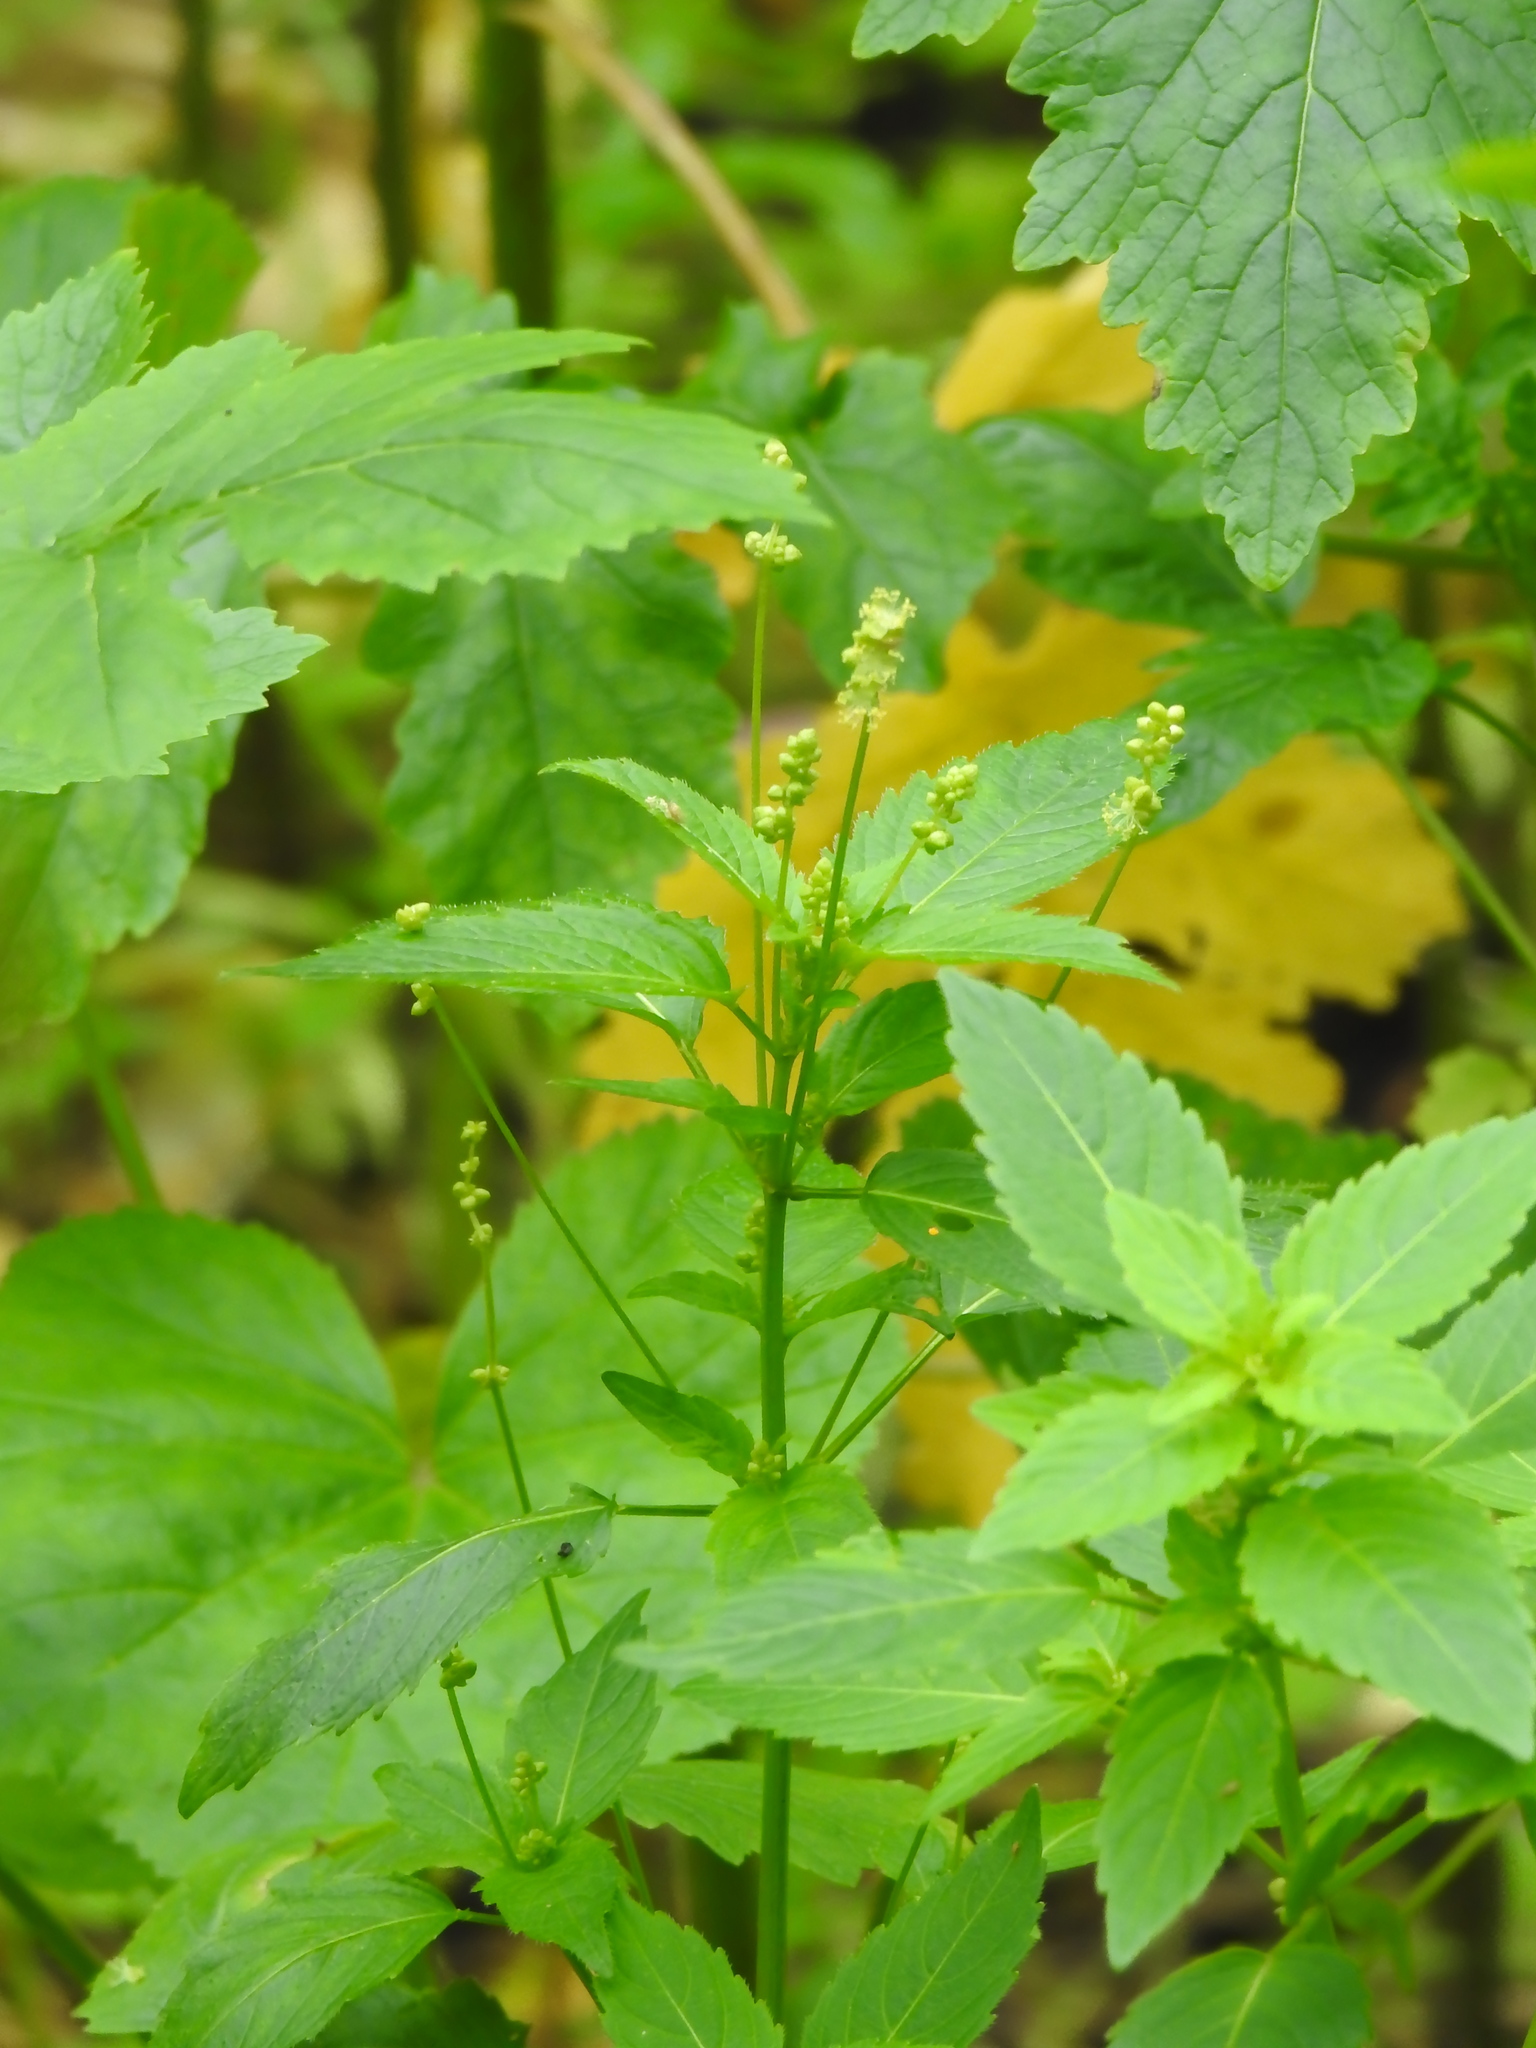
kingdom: Plantae
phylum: Tracheophyta
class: Magnoliopsida
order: Malpighiales
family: Euphorbiaceae
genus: Mercurialis
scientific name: Mercurialis annua
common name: Annual mercury
